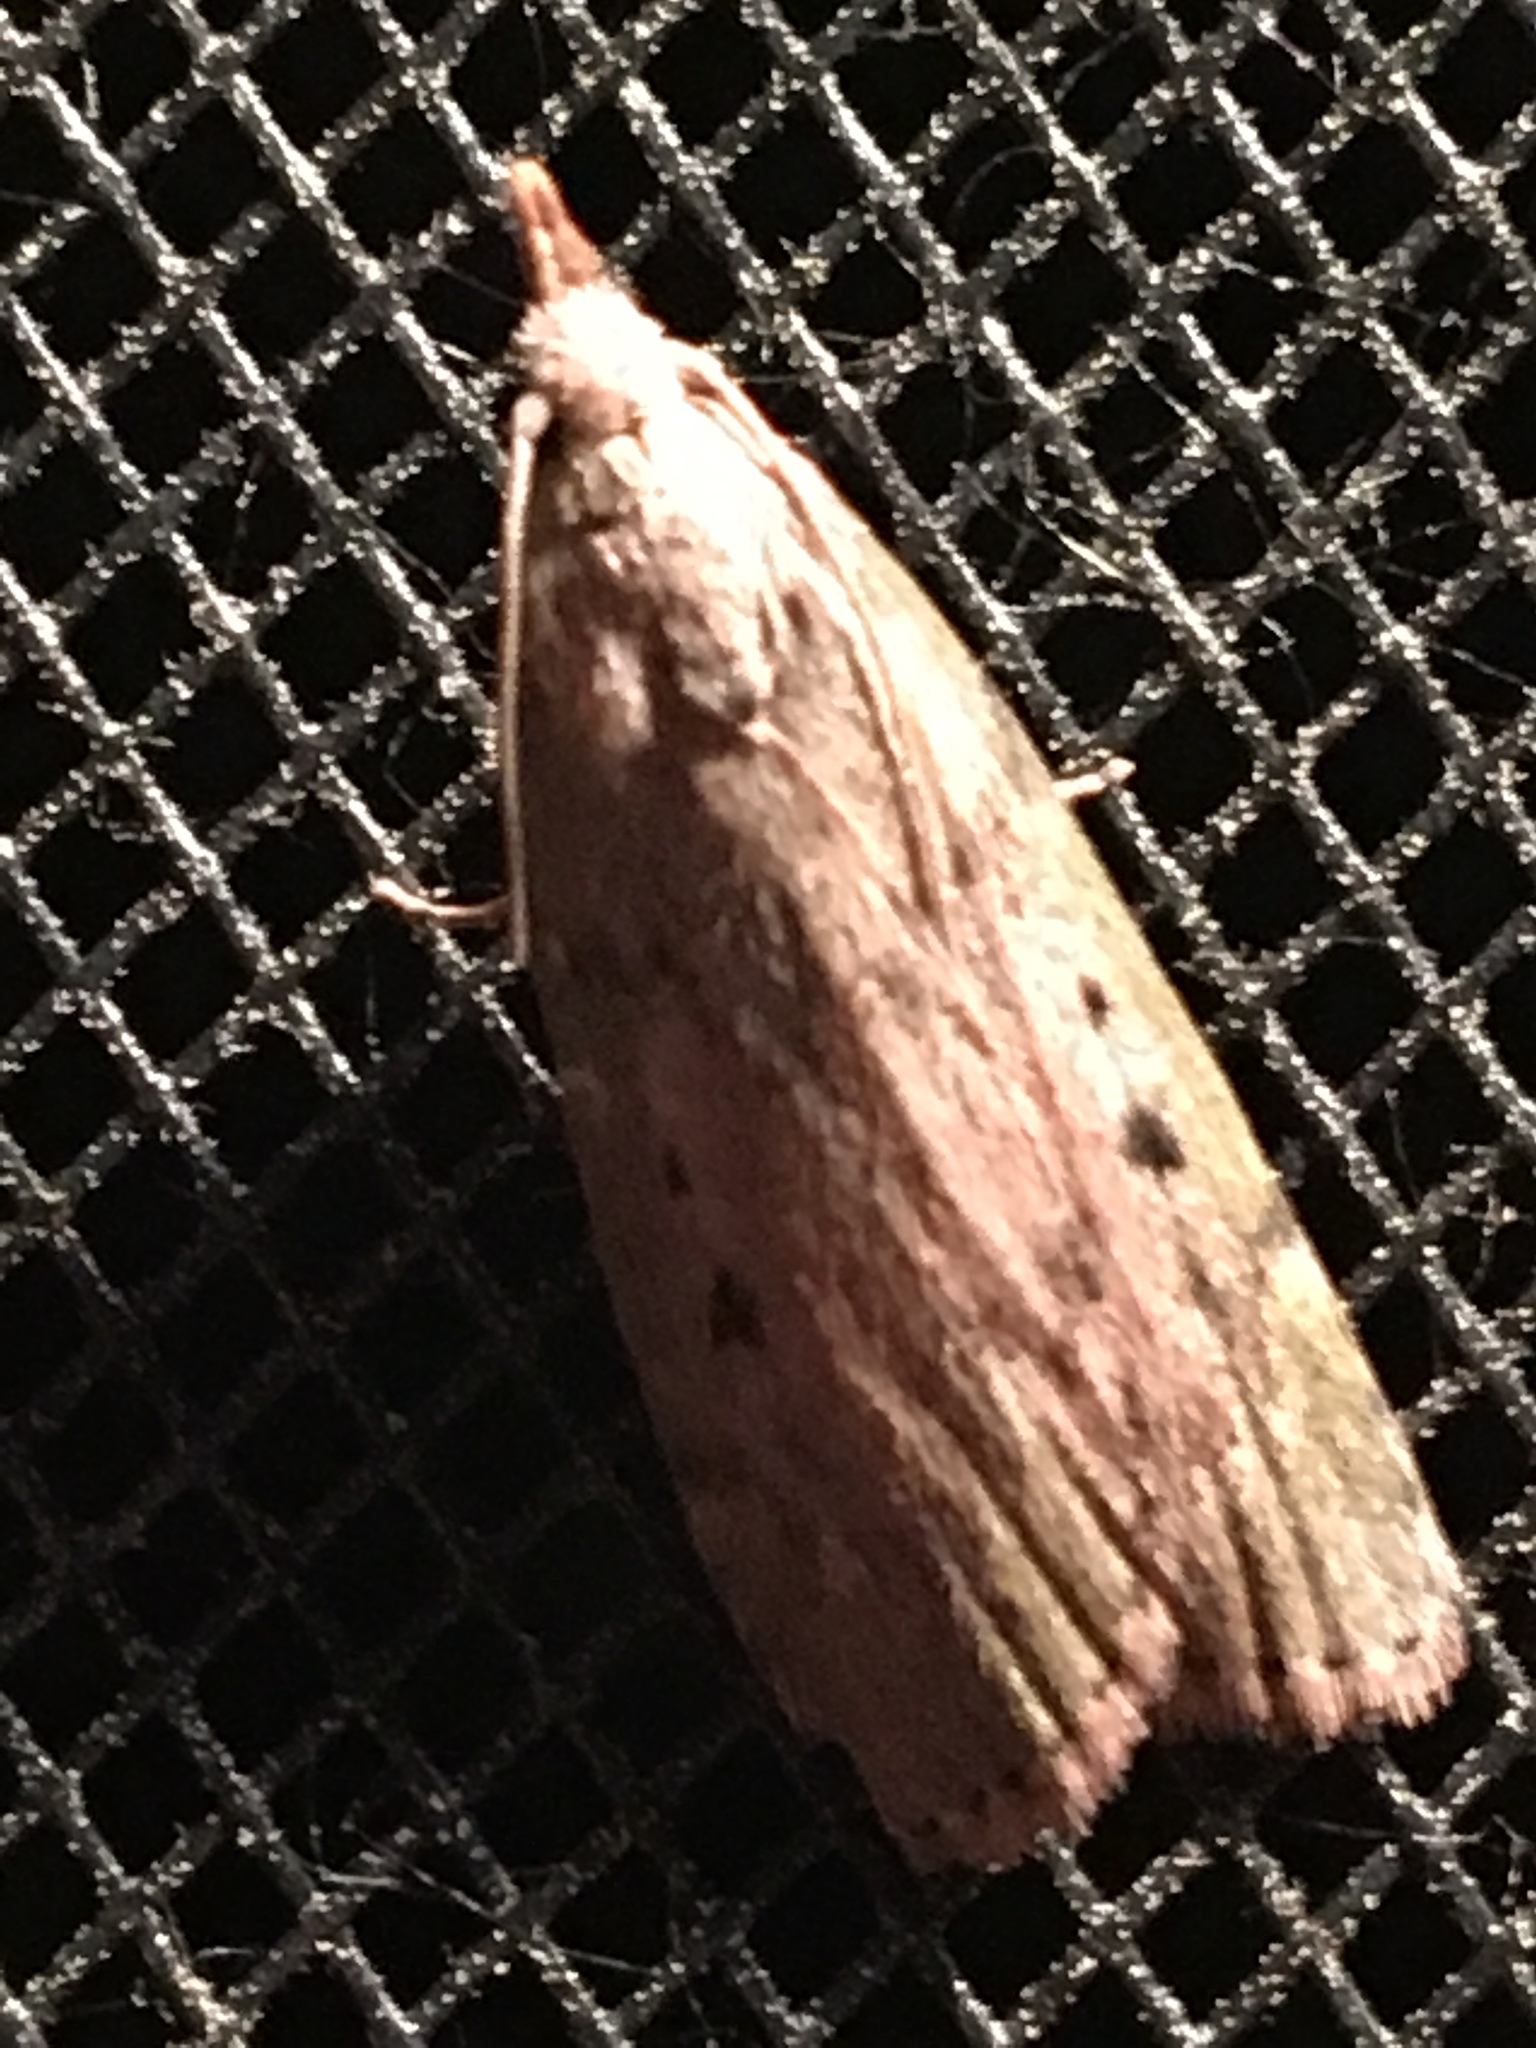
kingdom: Animalia
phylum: Arthropoda
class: Insecta
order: Lepidoptera
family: Pyralidae
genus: Aphomia
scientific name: Aphomia sociella
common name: Bee moth
